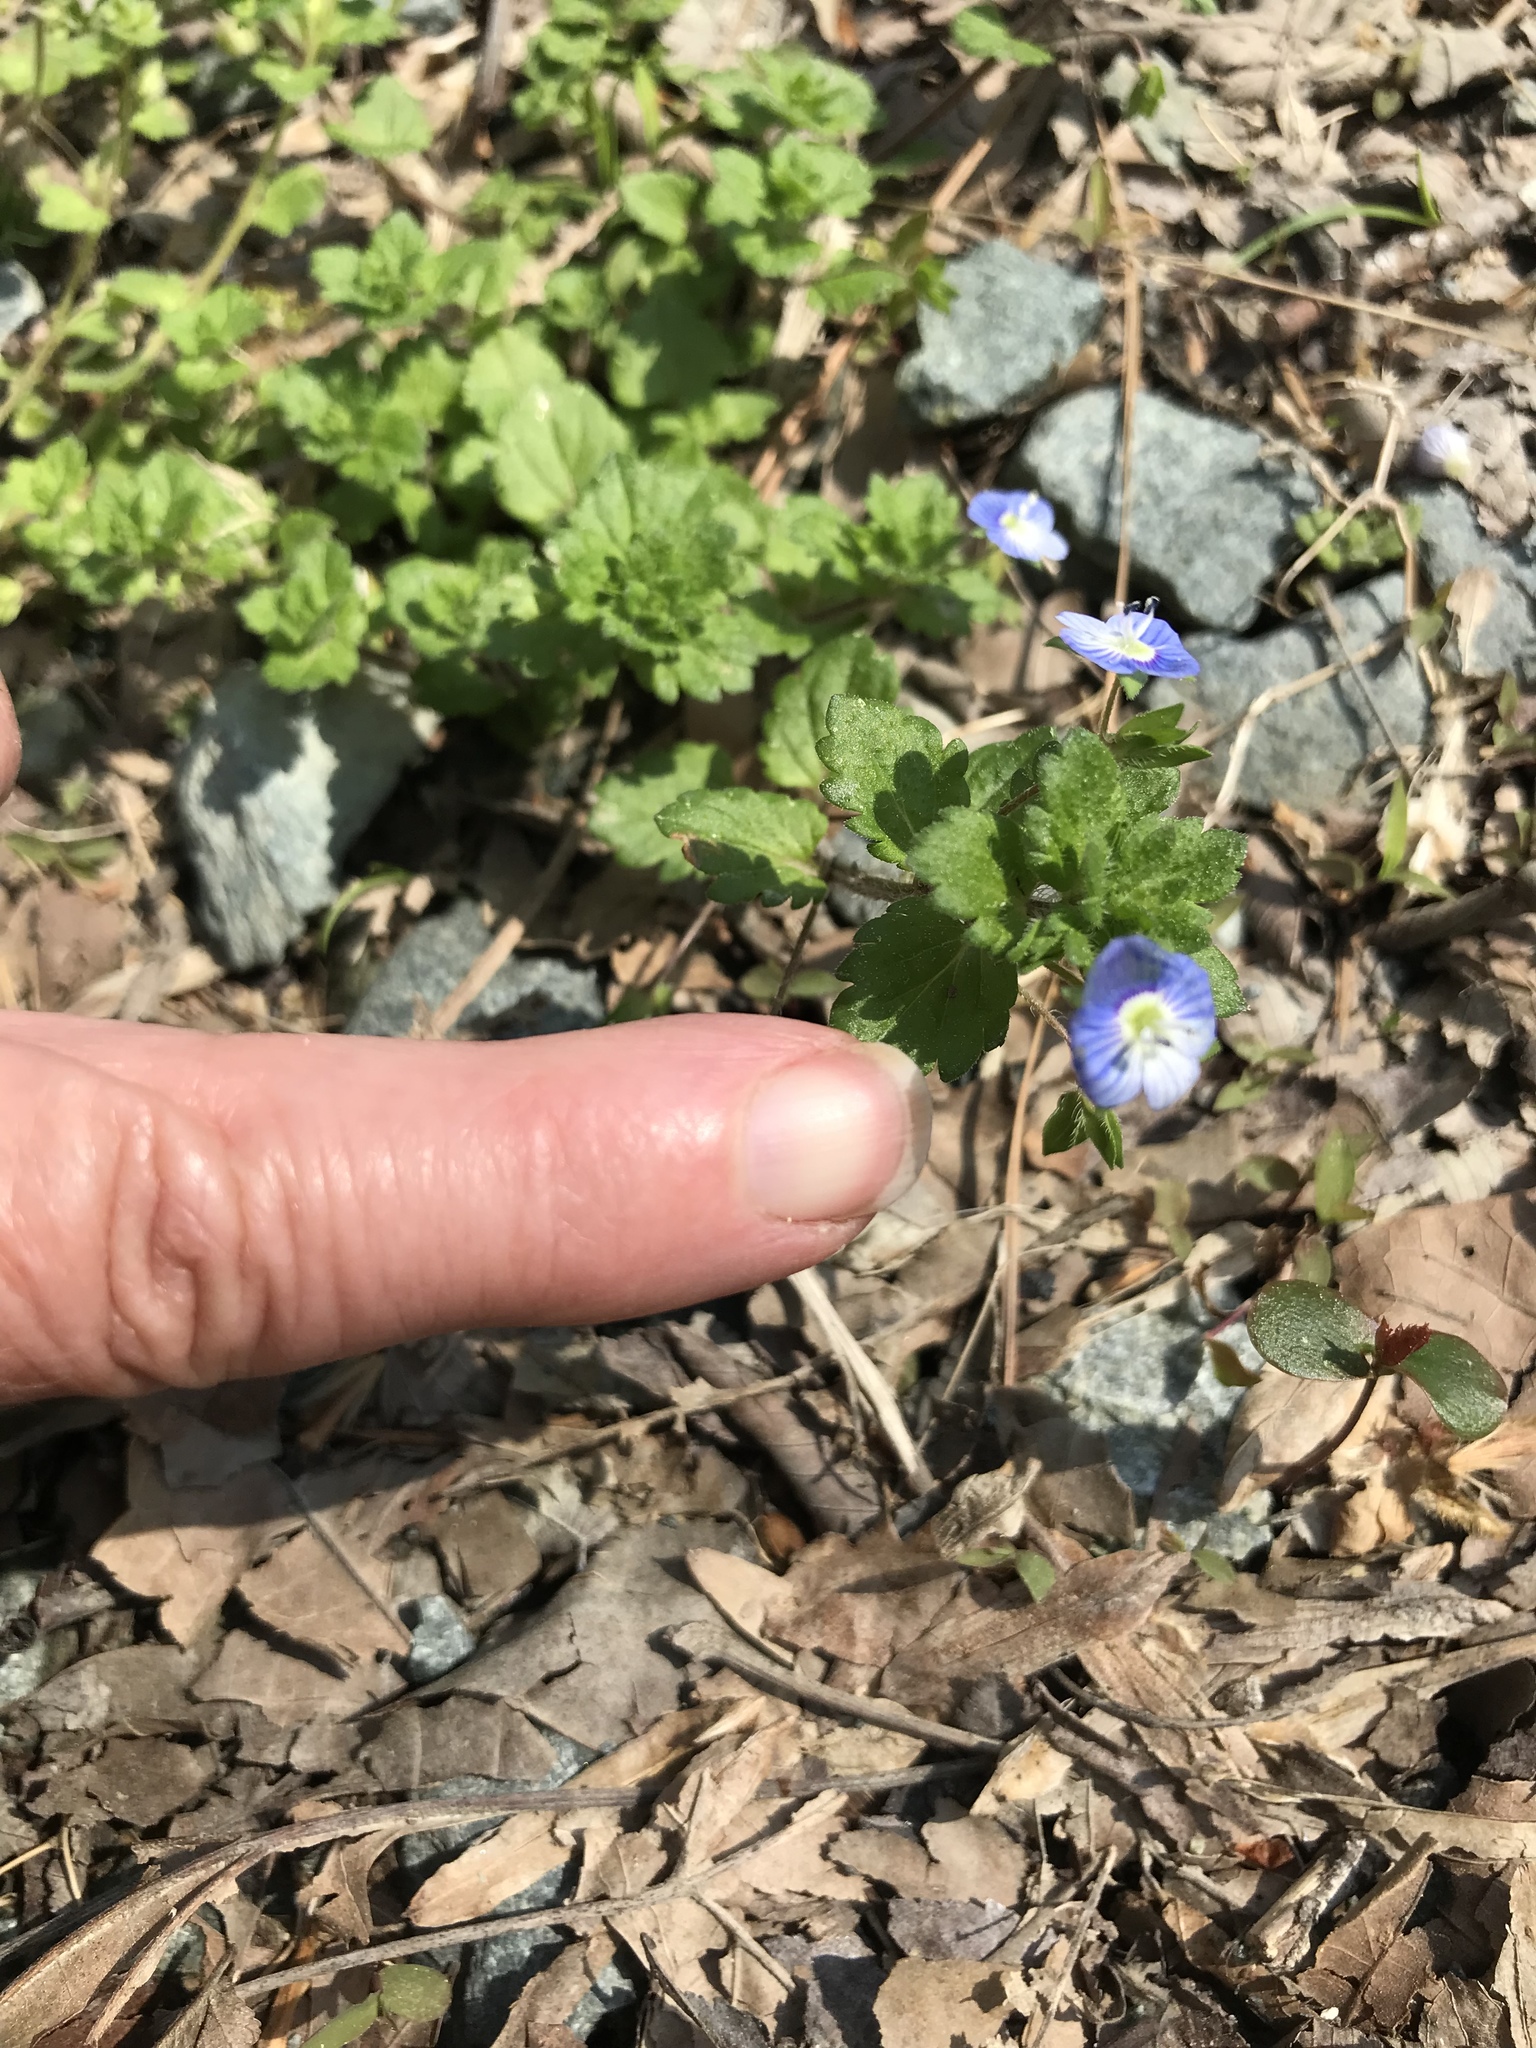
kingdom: Plantae
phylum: Tracheophyta
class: Magnoliopsida
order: Lamiales
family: Plantaginaceae
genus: Veronica
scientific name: Veronica persica
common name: Common field-speedwell
